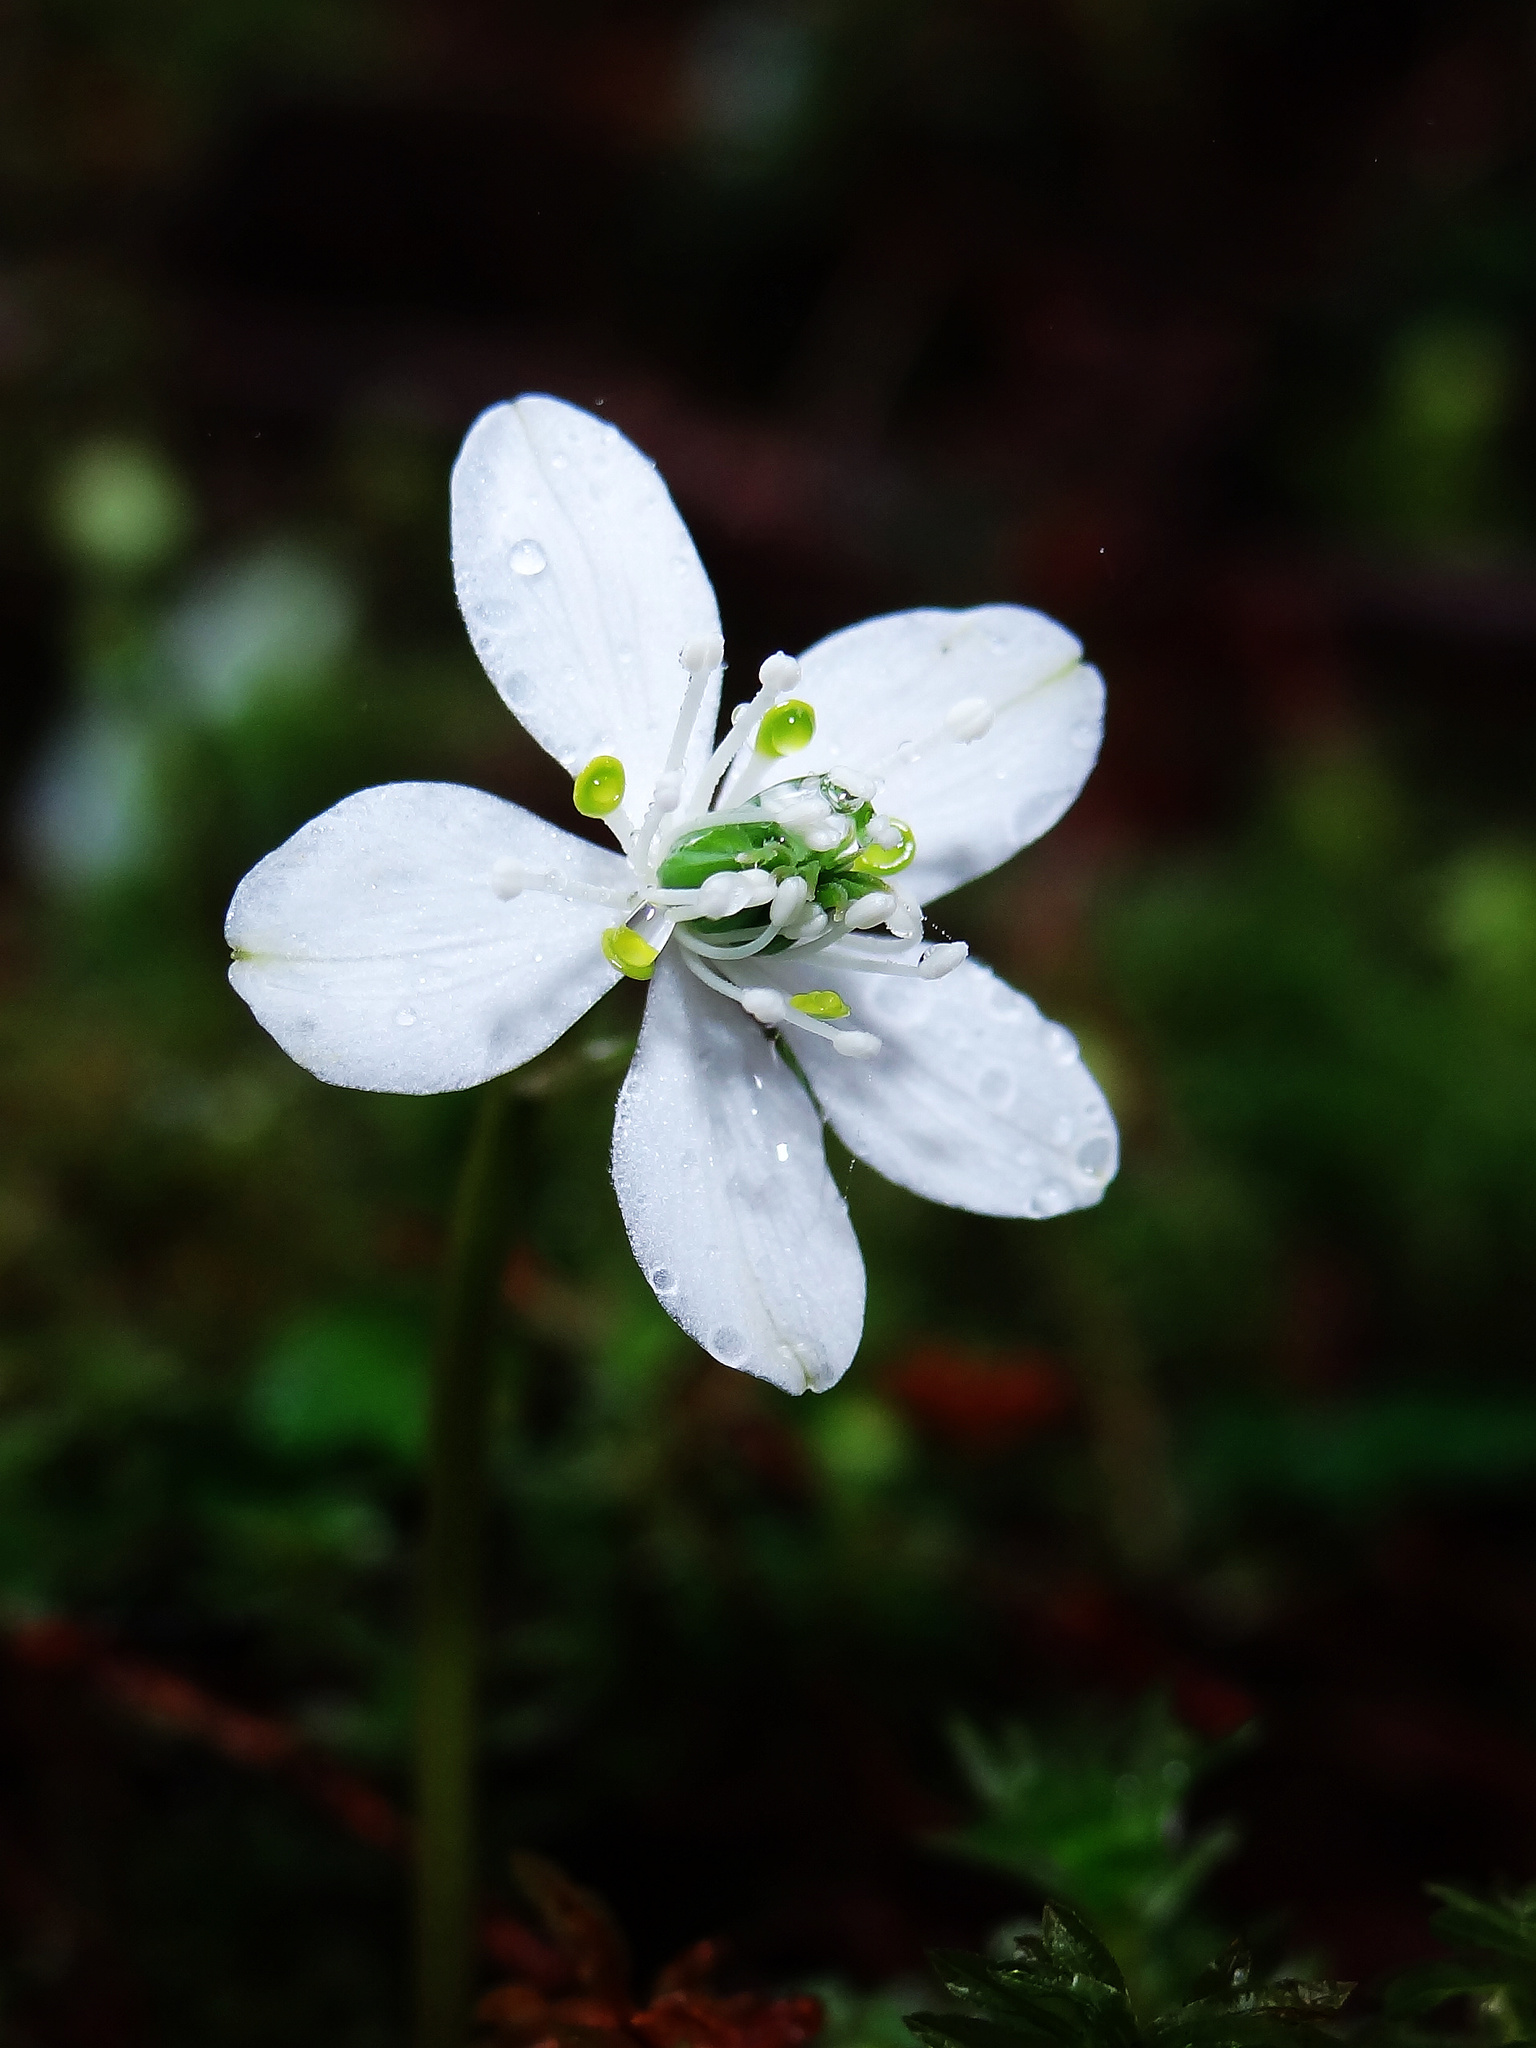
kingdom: Plantae
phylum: Tracheophyta
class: Magnoliopsida
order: Ranunculales
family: Ranunculaceae
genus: Coptis
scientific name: Coptis quinquefolia
